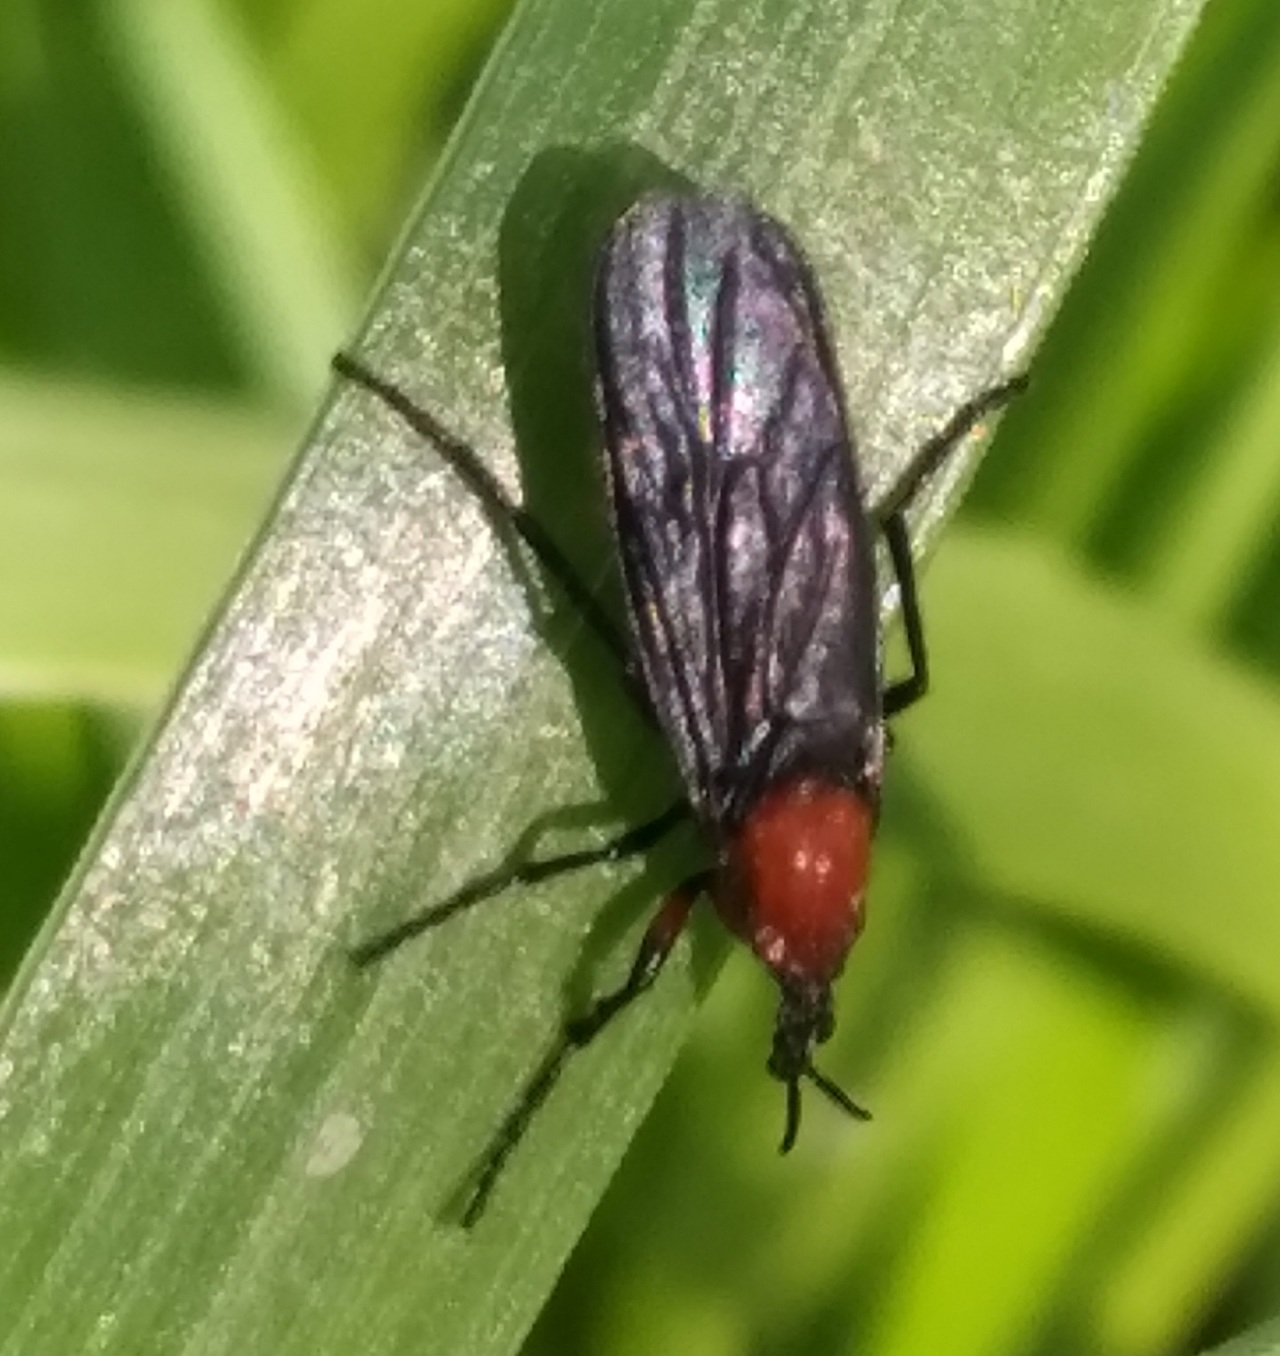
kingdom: Animalia
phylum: Arthropoda
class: Insecta
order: Diptera
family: Bibionidae
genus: Dilophus
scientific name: Dilophus pectoralis
